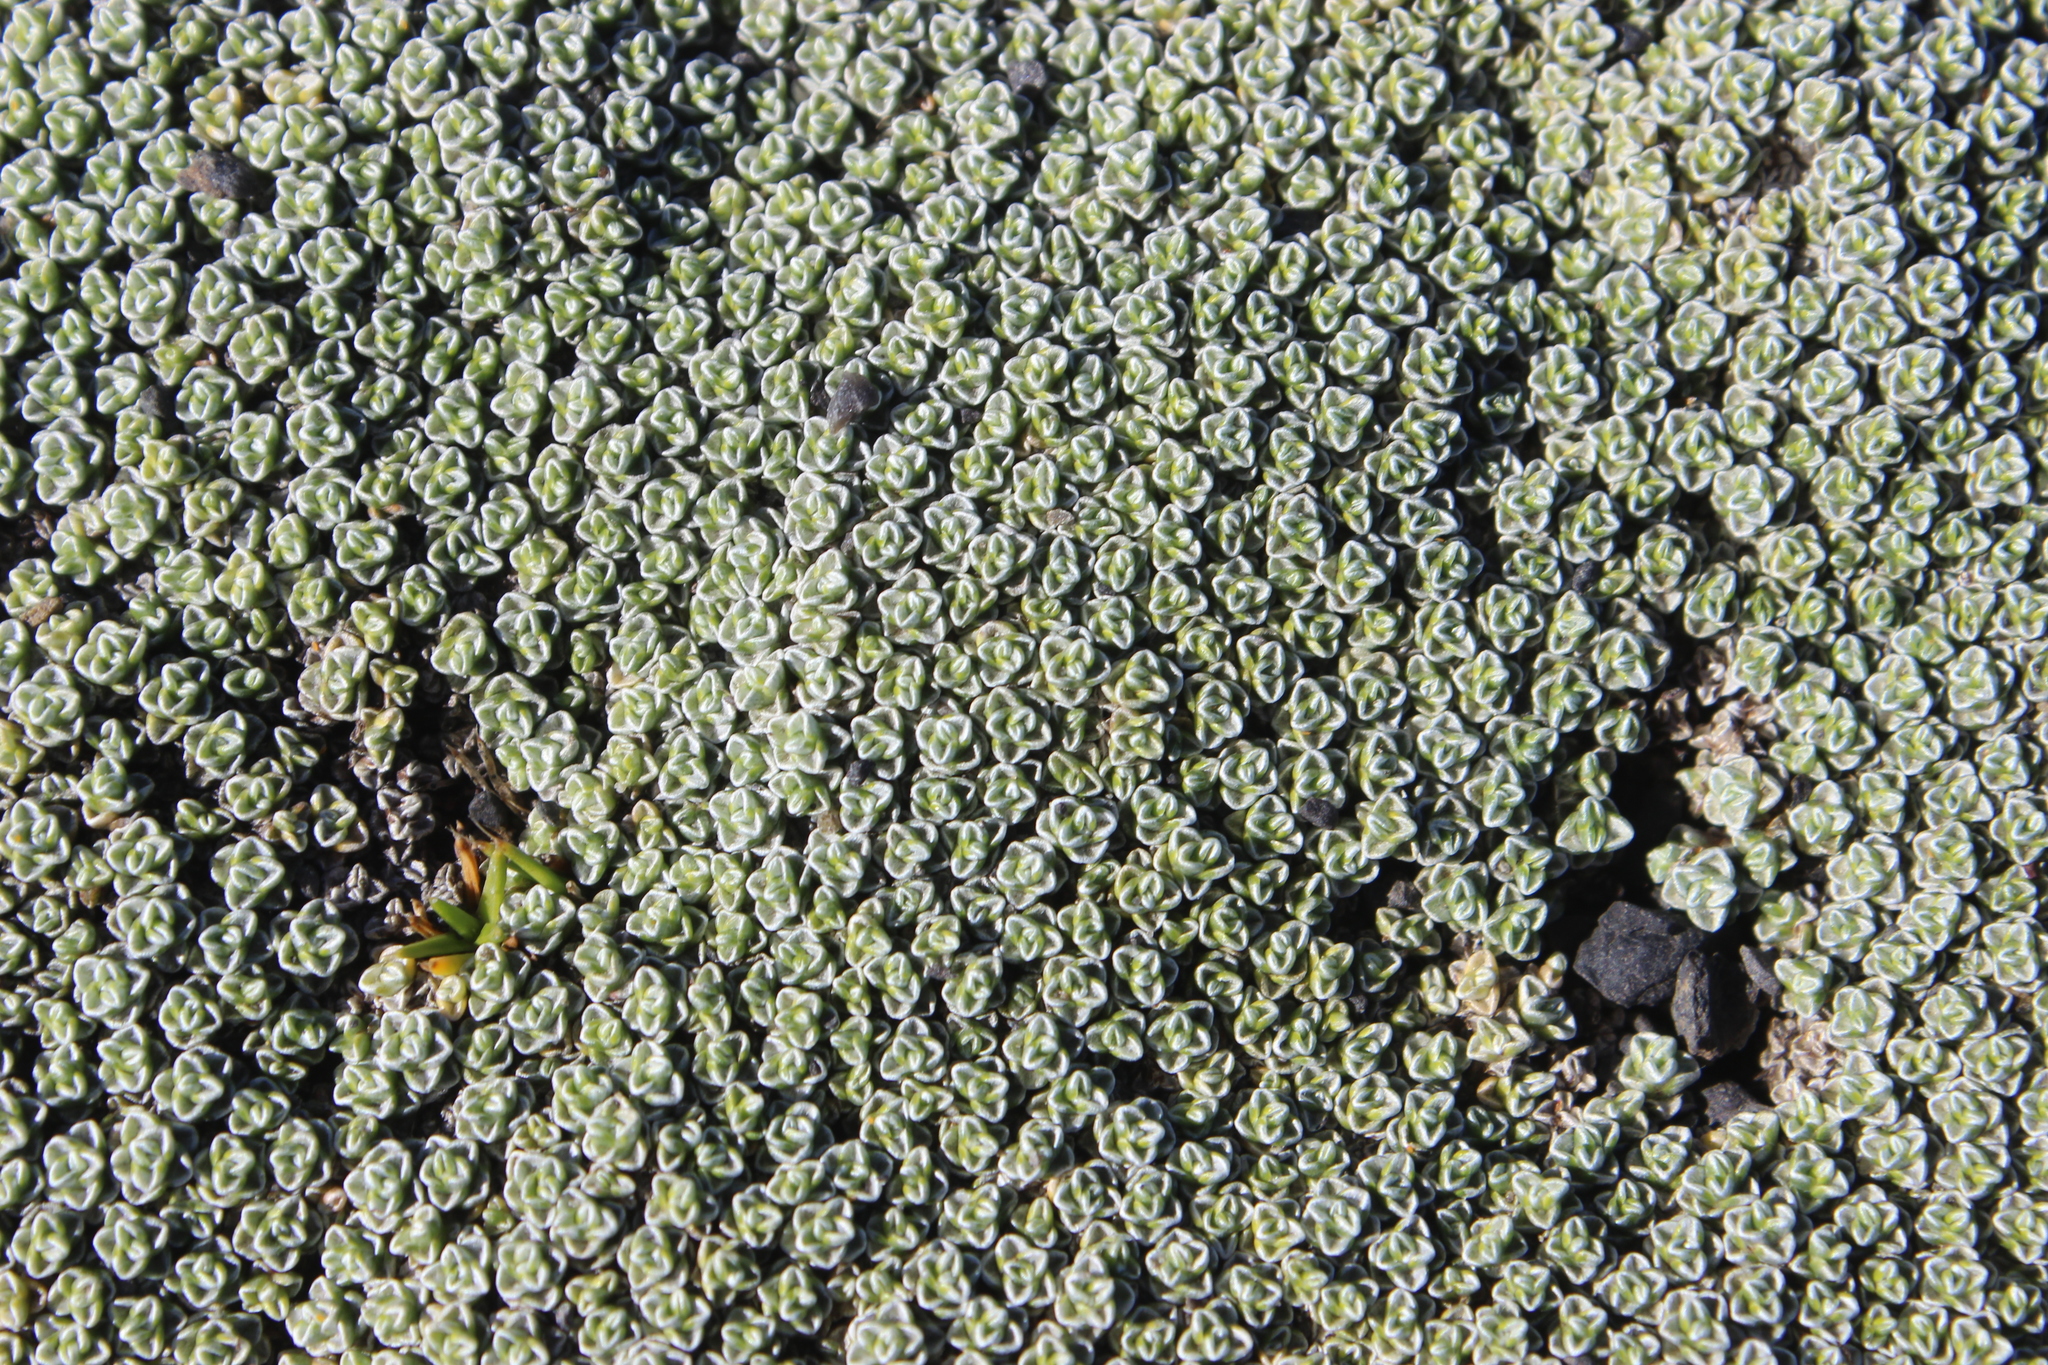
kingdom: Plantae
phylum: Tracheophyta
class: Magnoliopsida
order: Asterales
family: Asteraceae
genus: Raoulia
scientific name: Raoulia australis
